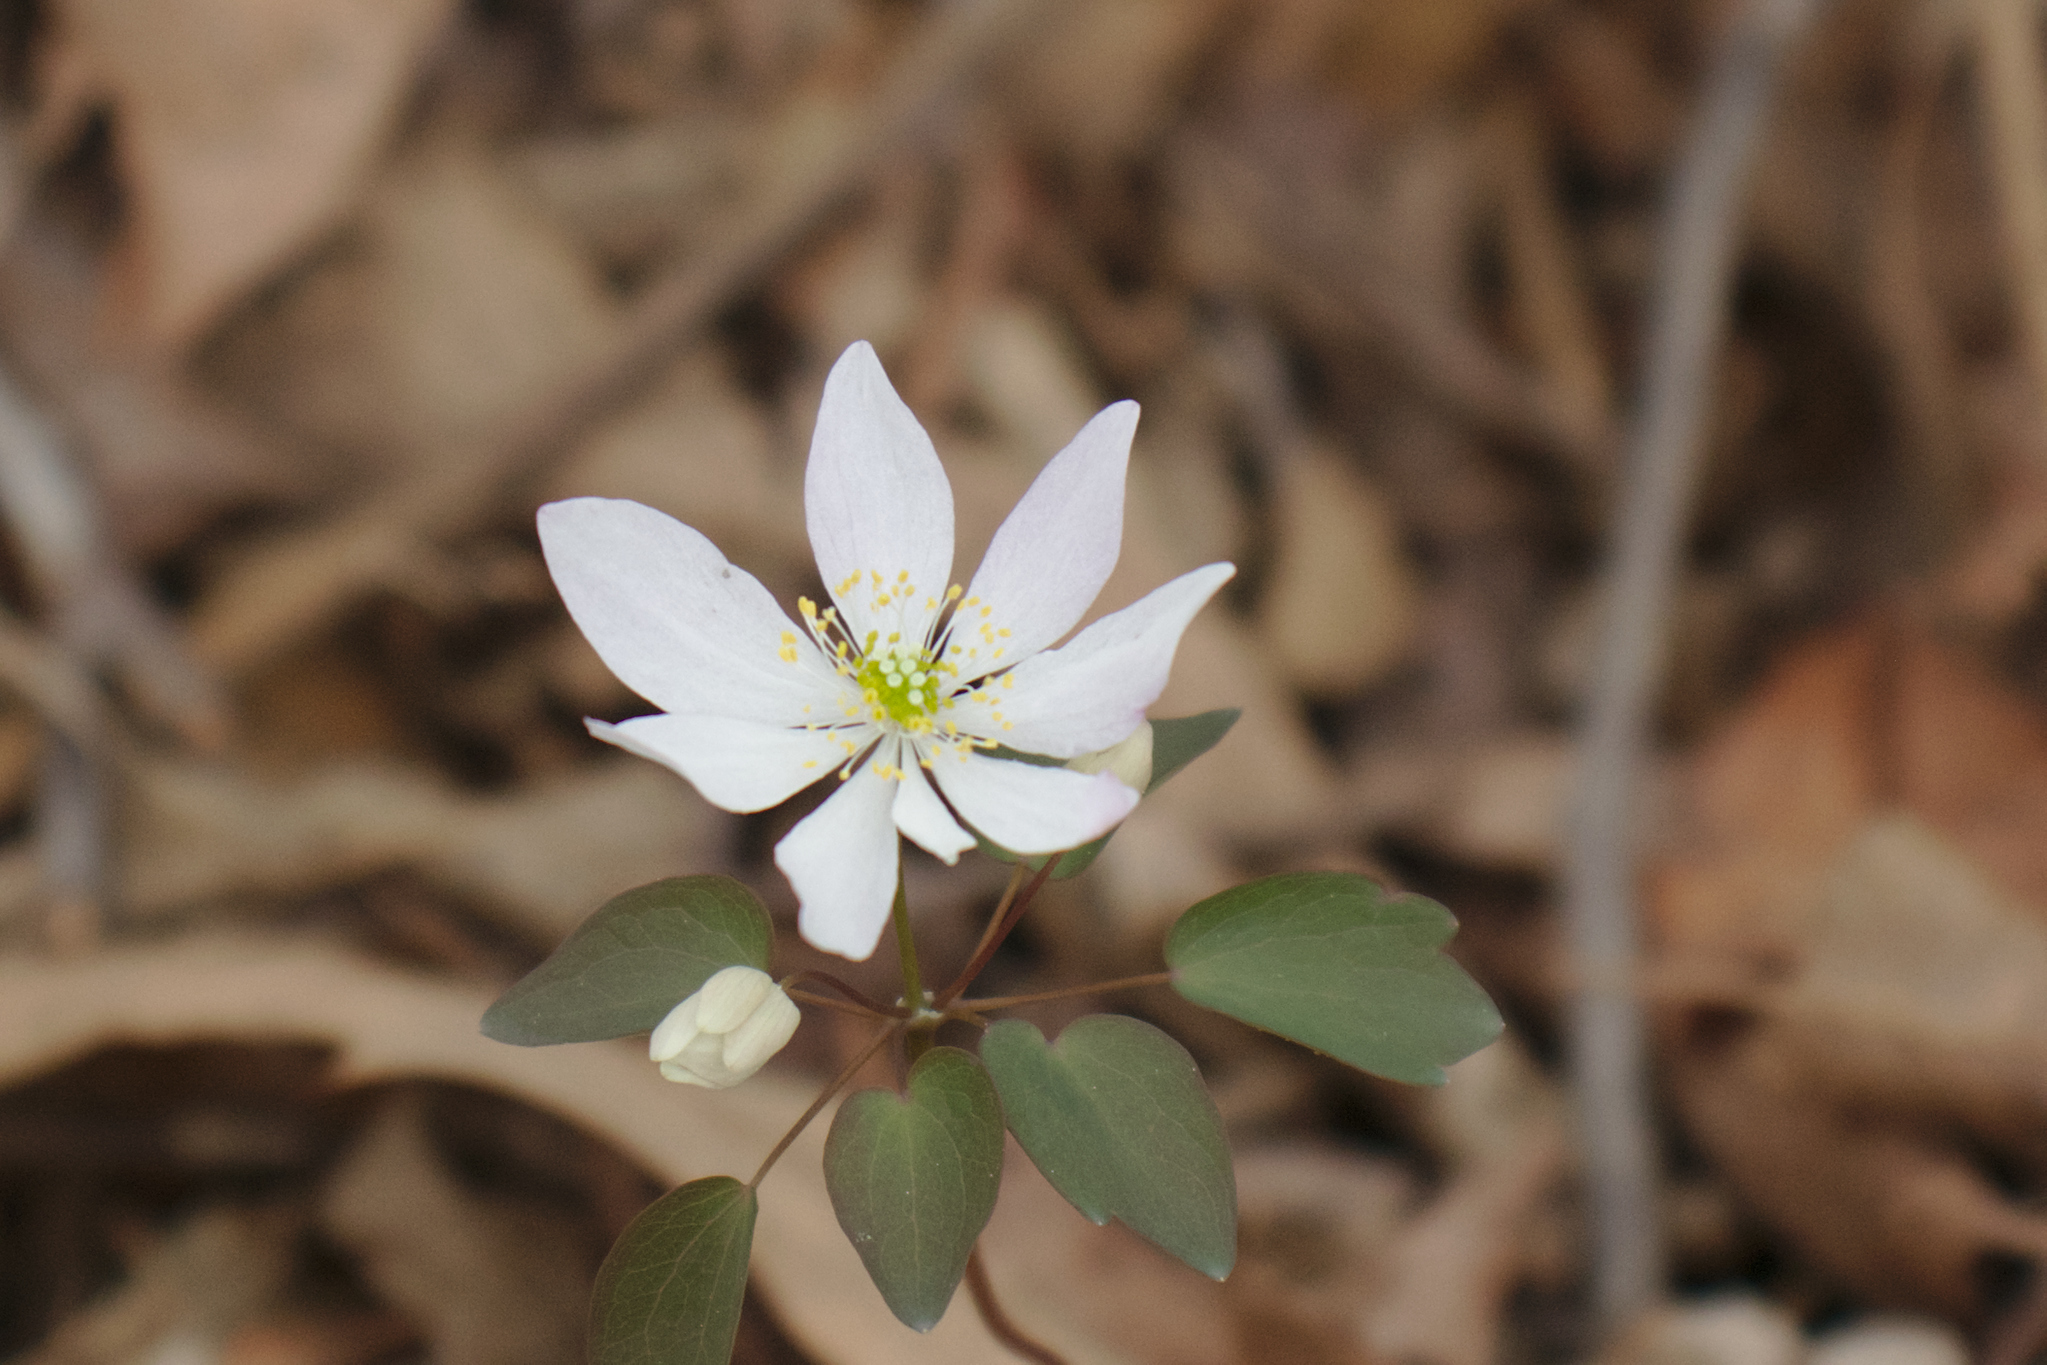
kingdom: Plantae
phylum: Tracheophyta
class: Magnoliopsida
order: Ranunculales
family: Ranunculaceae
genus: Thalictrum
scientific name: Thalictrum thalictroides
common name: Rue-anemone
